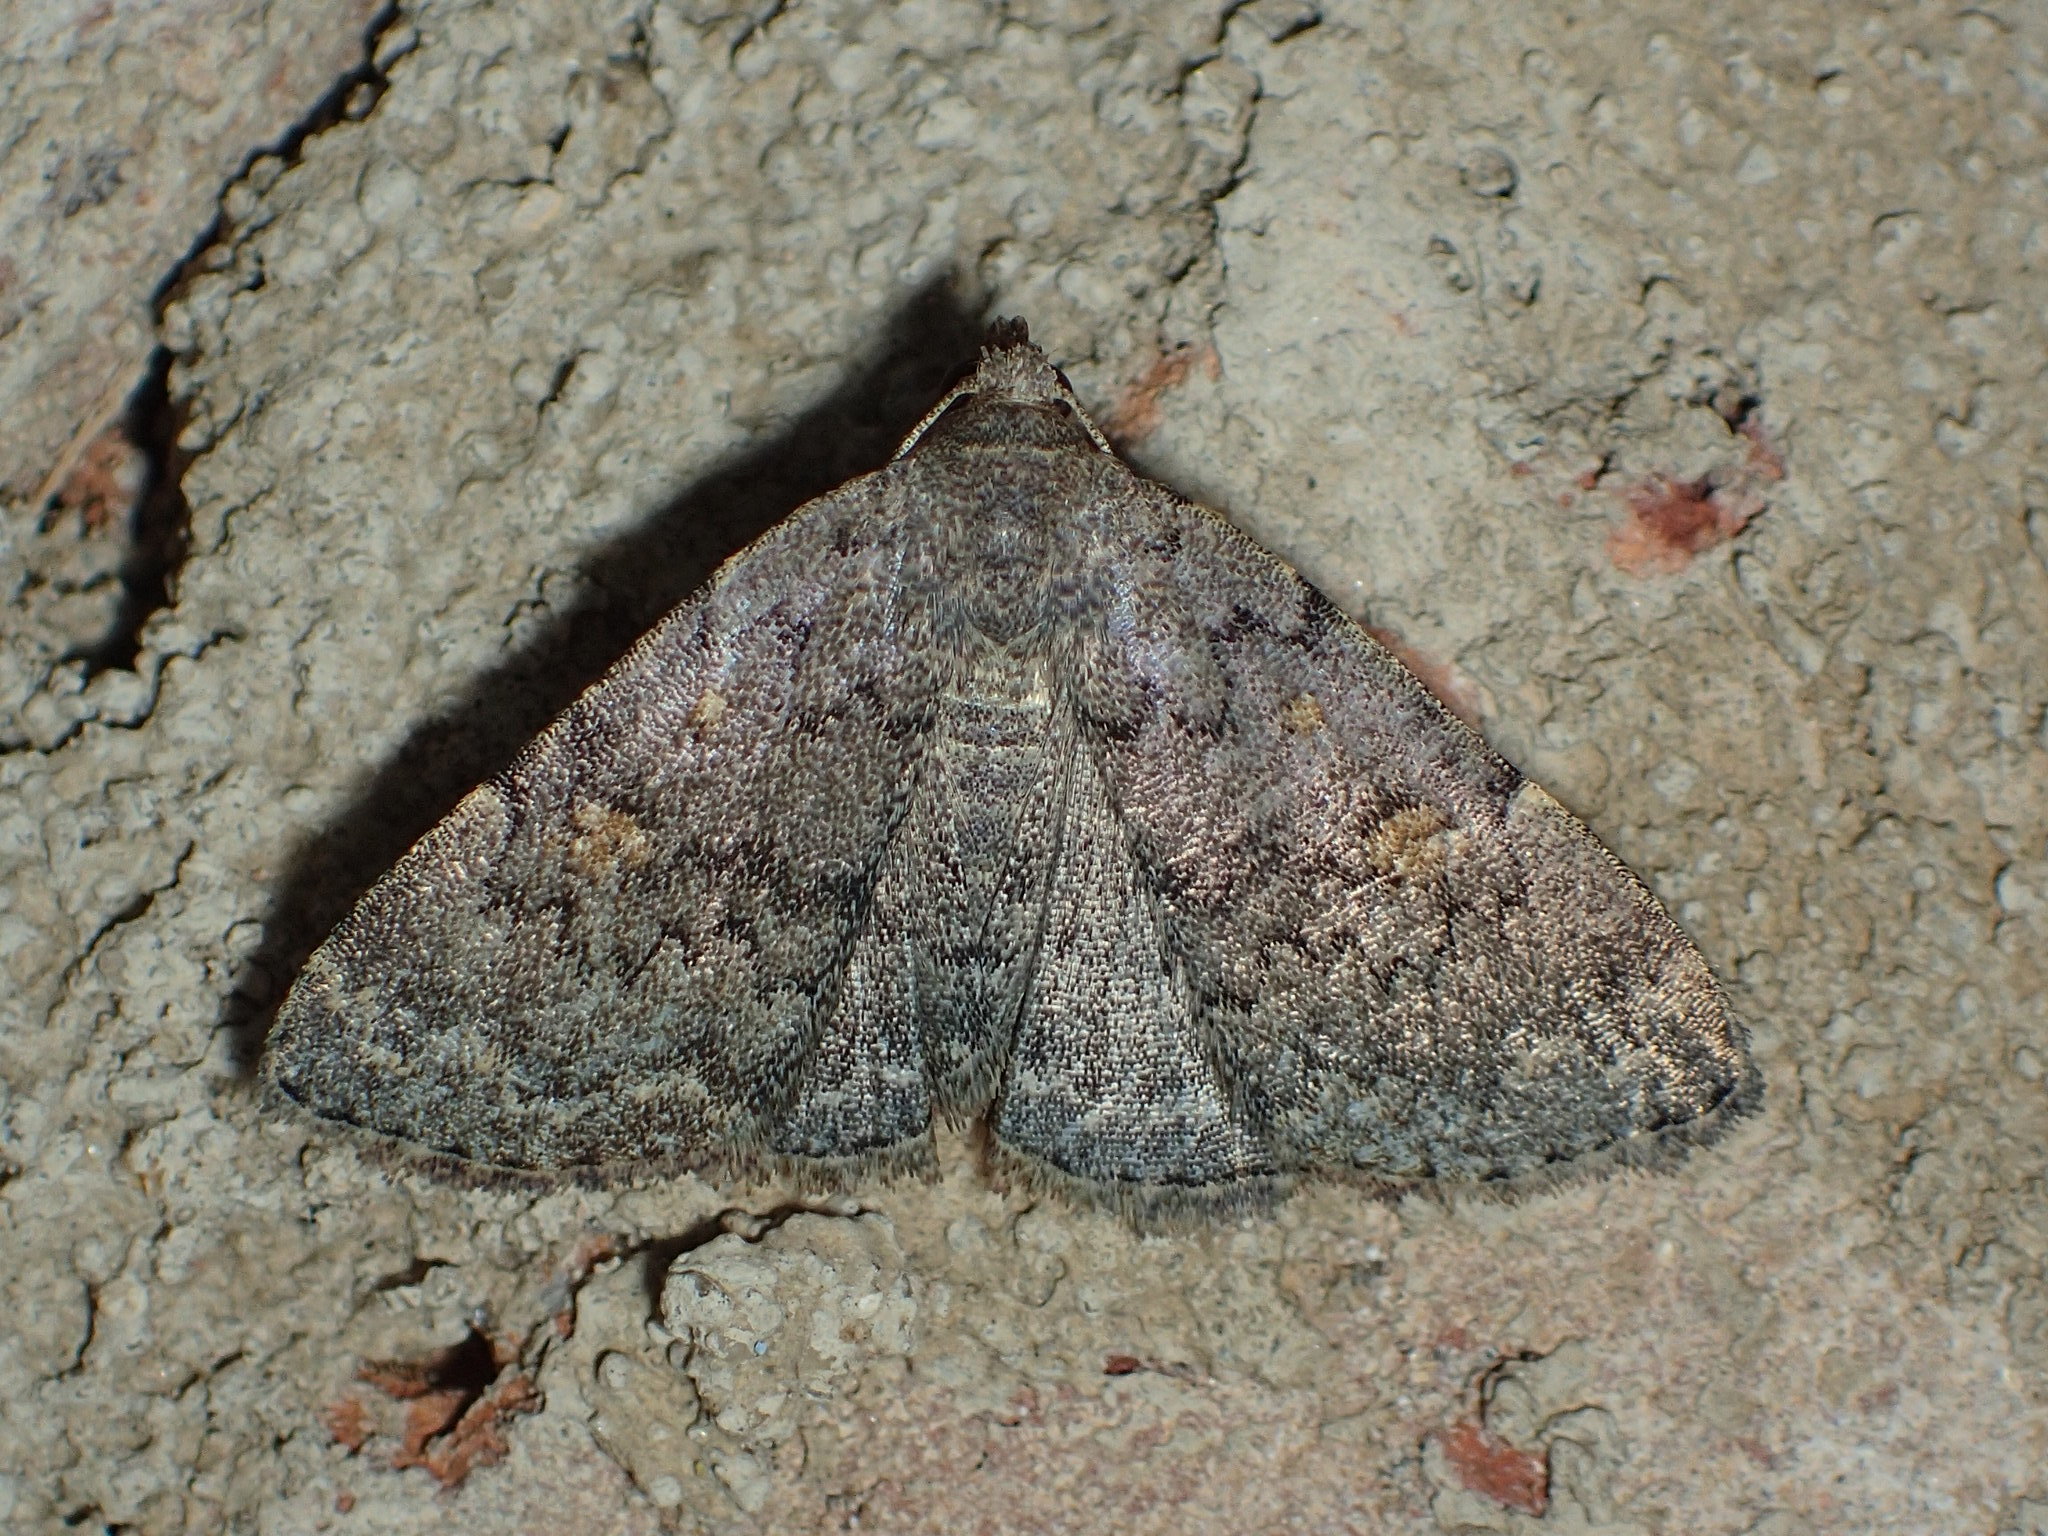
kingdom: Animalia
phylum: Arthropoda
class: Insecta
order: Lepidoptera
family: Erebidae
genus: Idia
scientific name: Idia aemula
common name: Common idia moth
